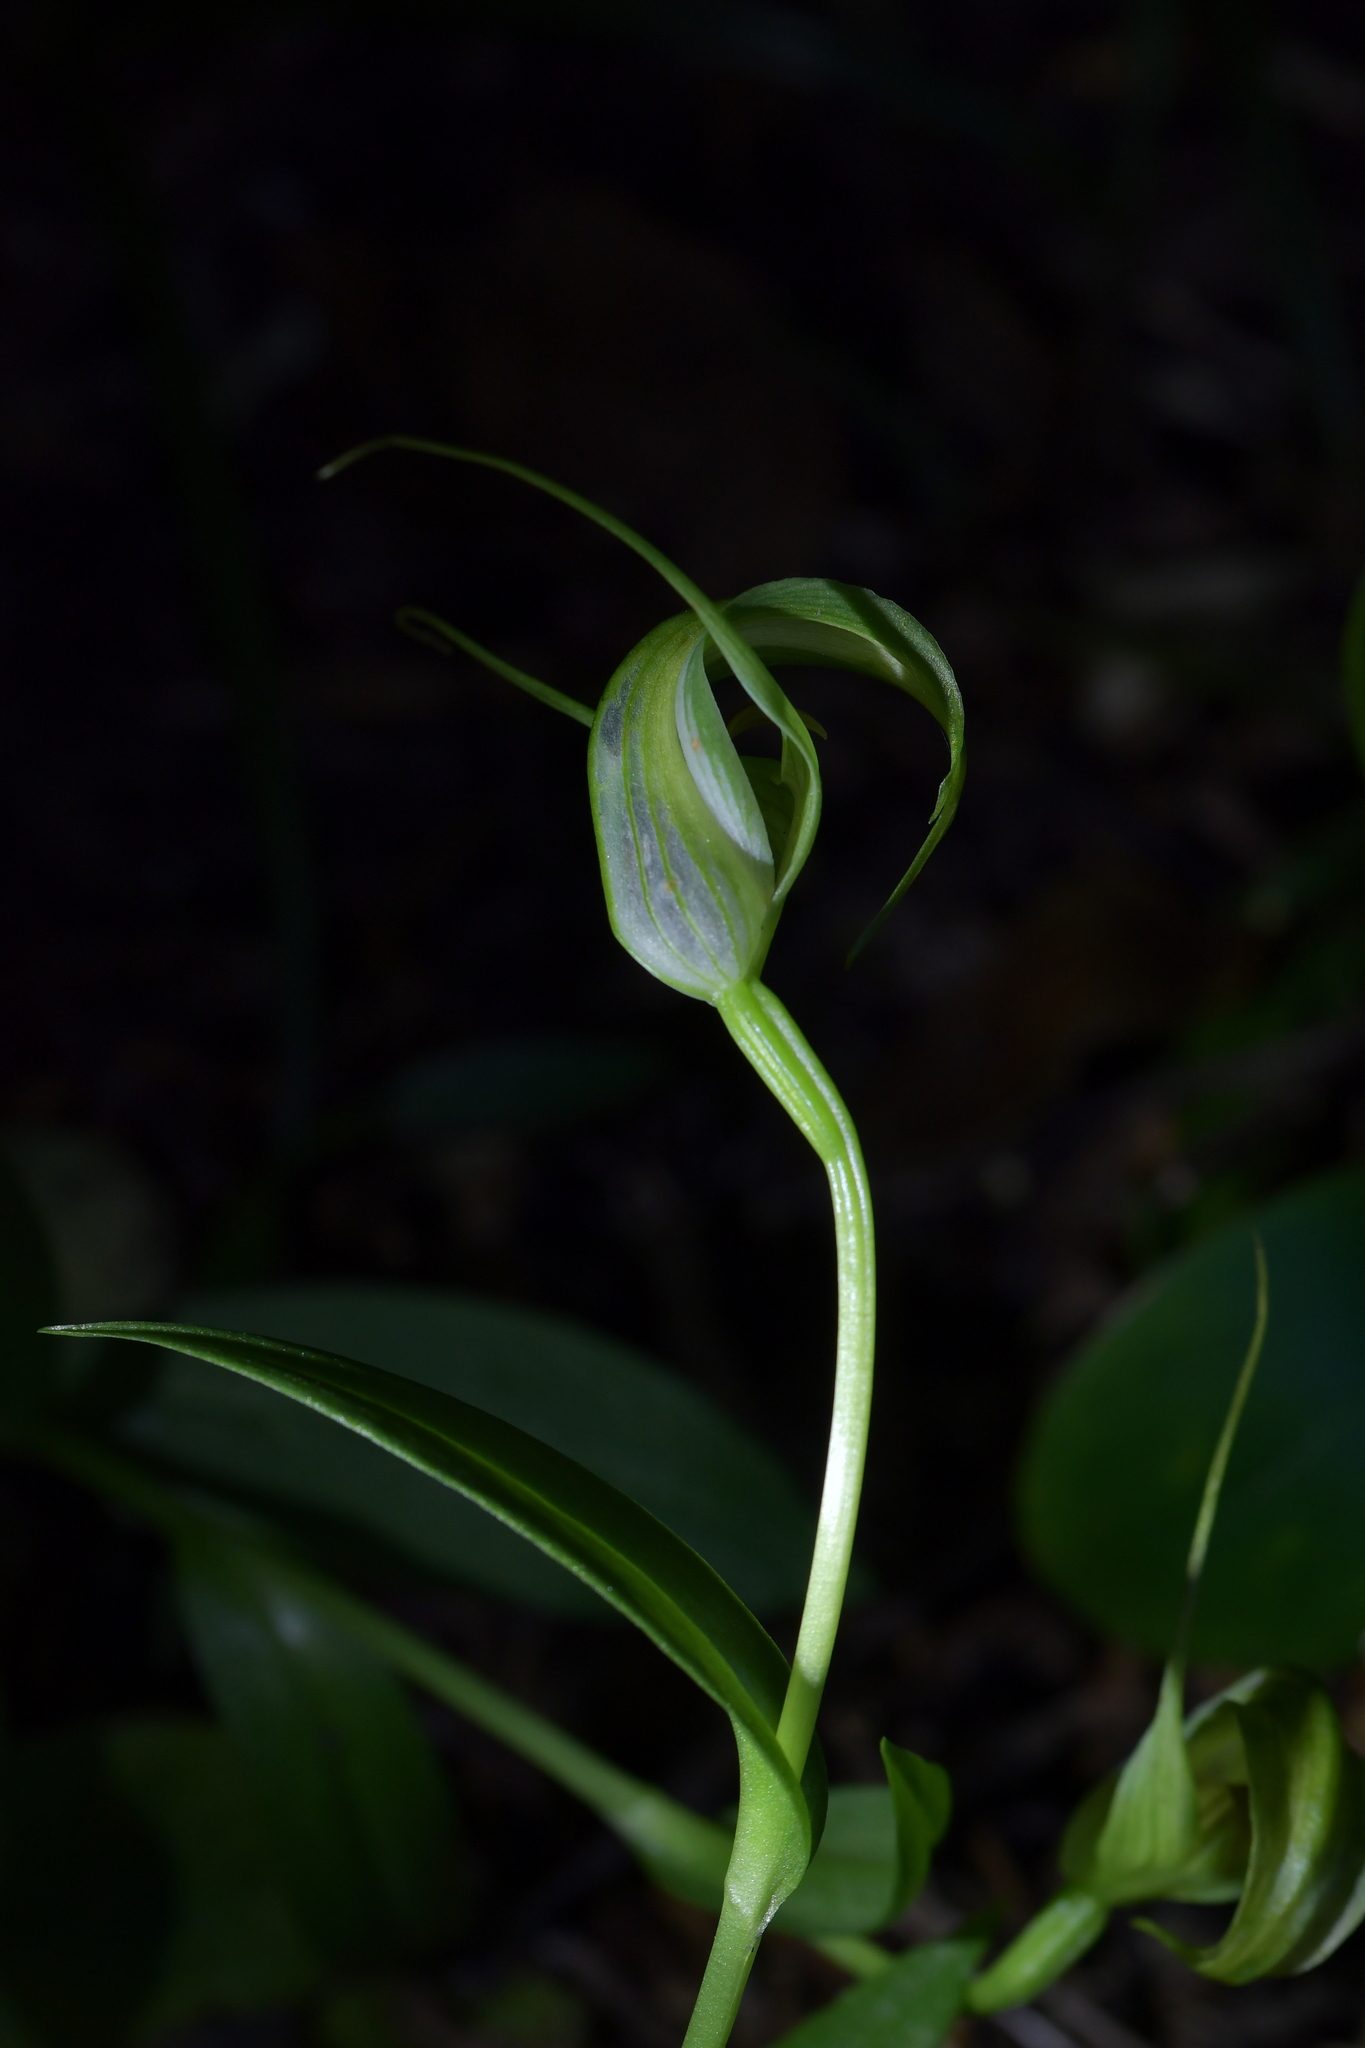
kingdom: Plantae
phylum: Tracheophyta
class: Liliopsida
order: Asparagales
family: Orchidaceae
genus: Pterostylis
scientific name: Pterostylis oliveri
